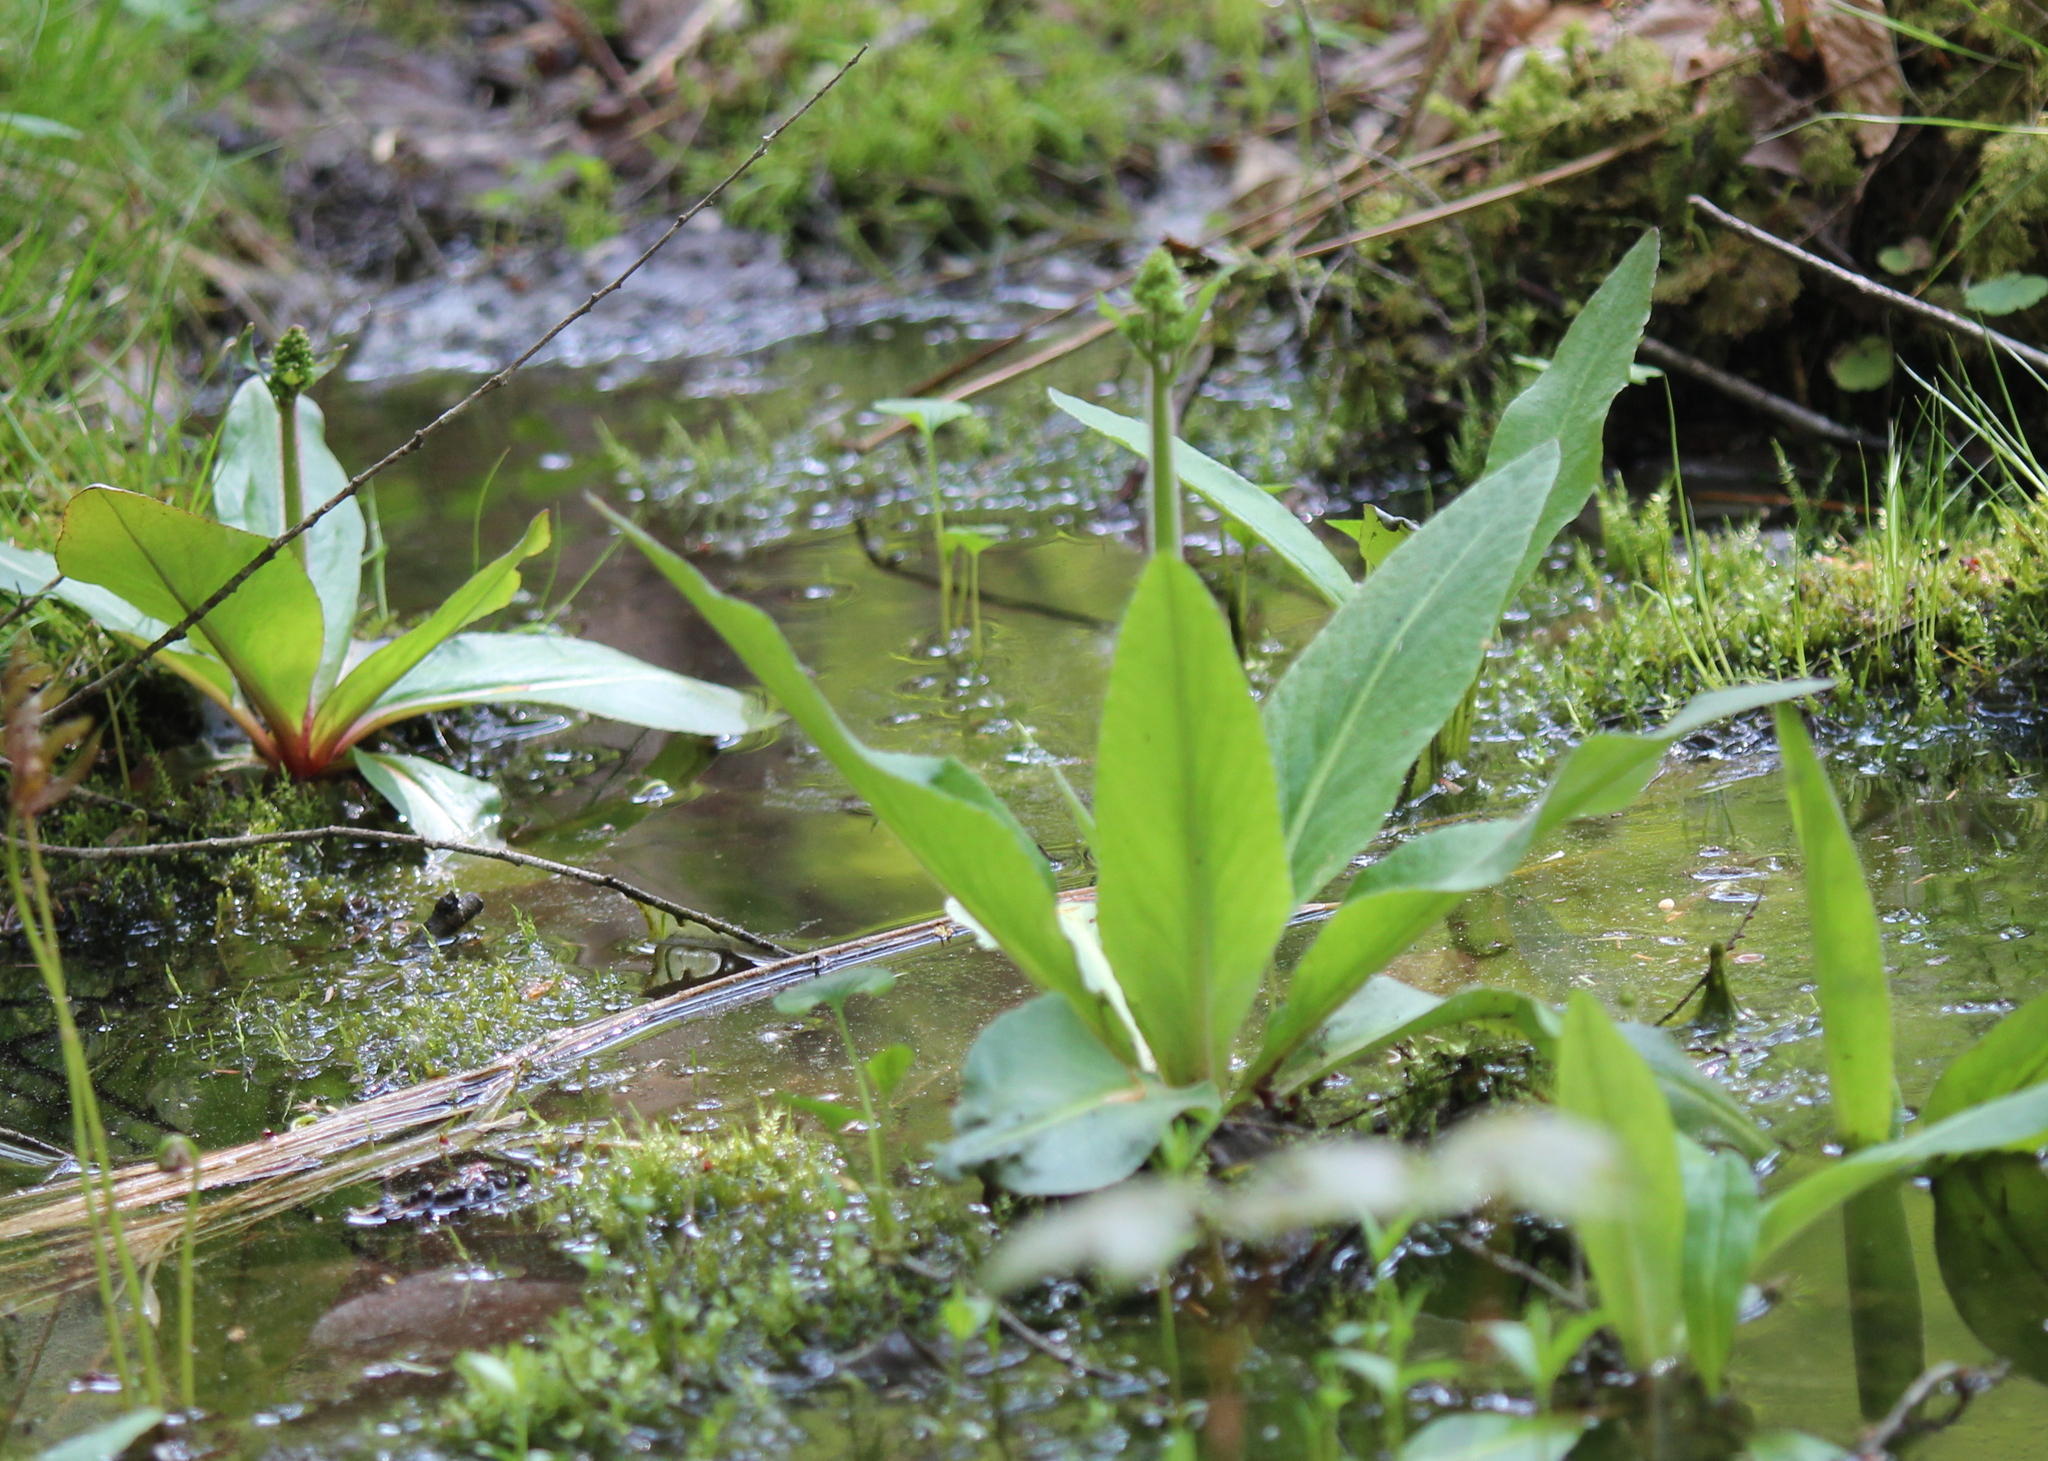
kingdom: Plantae
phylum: Tracheophyta
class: Magnoliopsida
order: Saxifragales
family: Saxifragaceae
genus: Micranthes
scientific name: Micranthes pensylvanica
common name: Marsh saxifrage
